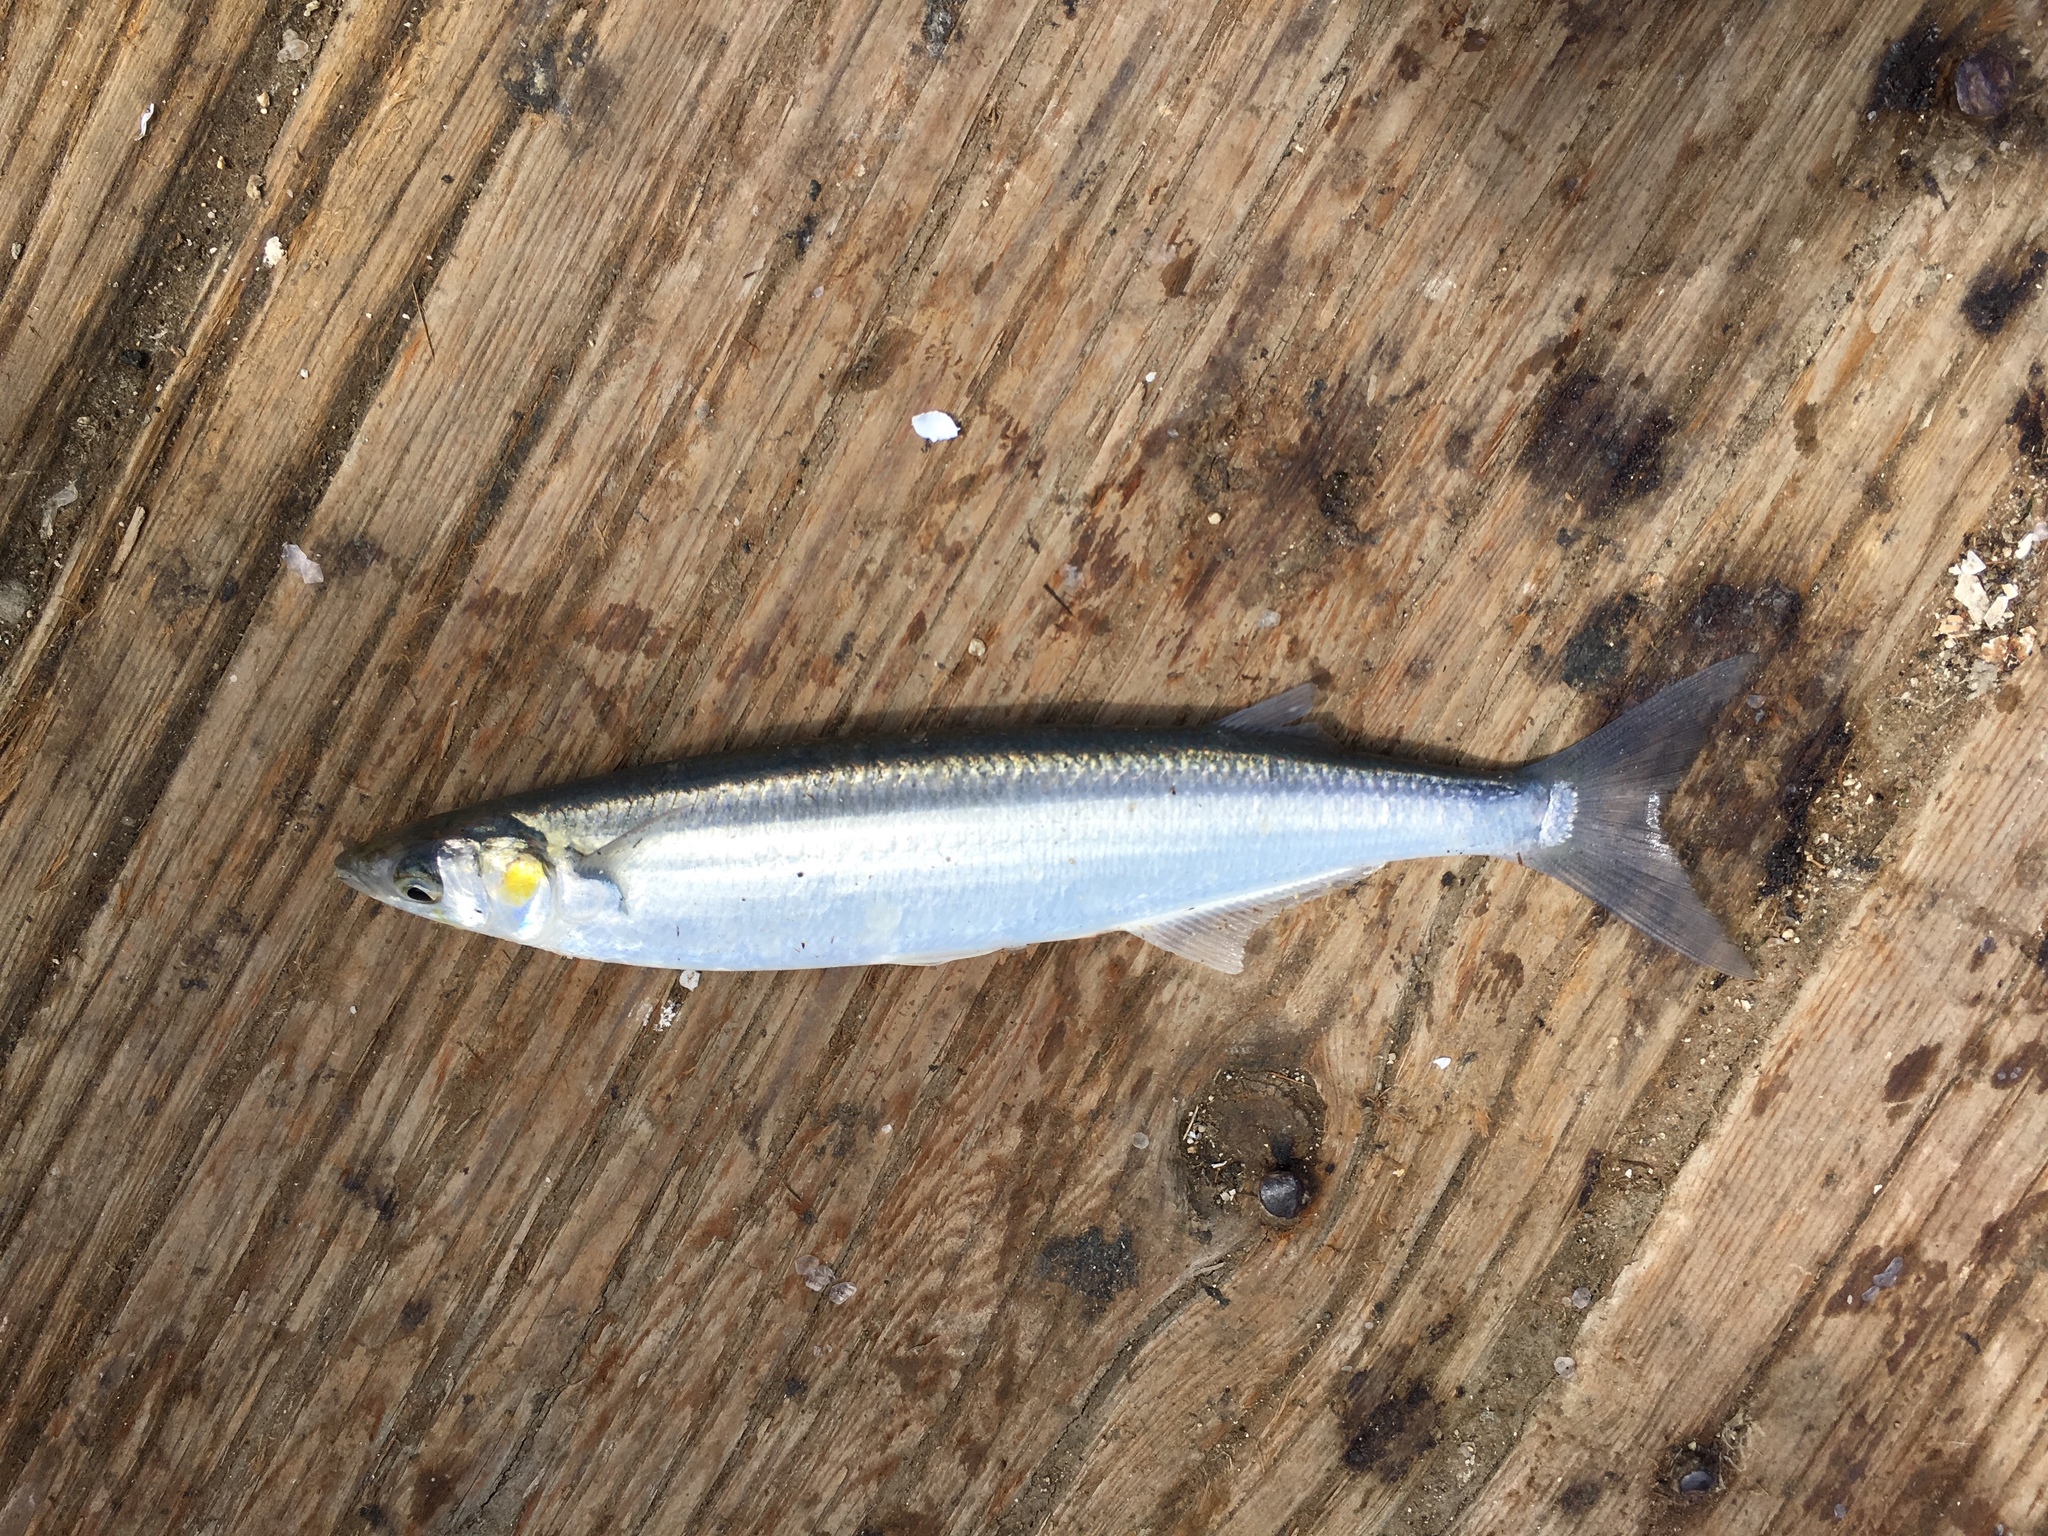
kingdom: Animalia
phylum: Chordata
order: Atheriniformes
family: Atherinopsidae
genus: Atherinopsis
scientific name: Atherinopsis californiensis
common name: Jack silverside
